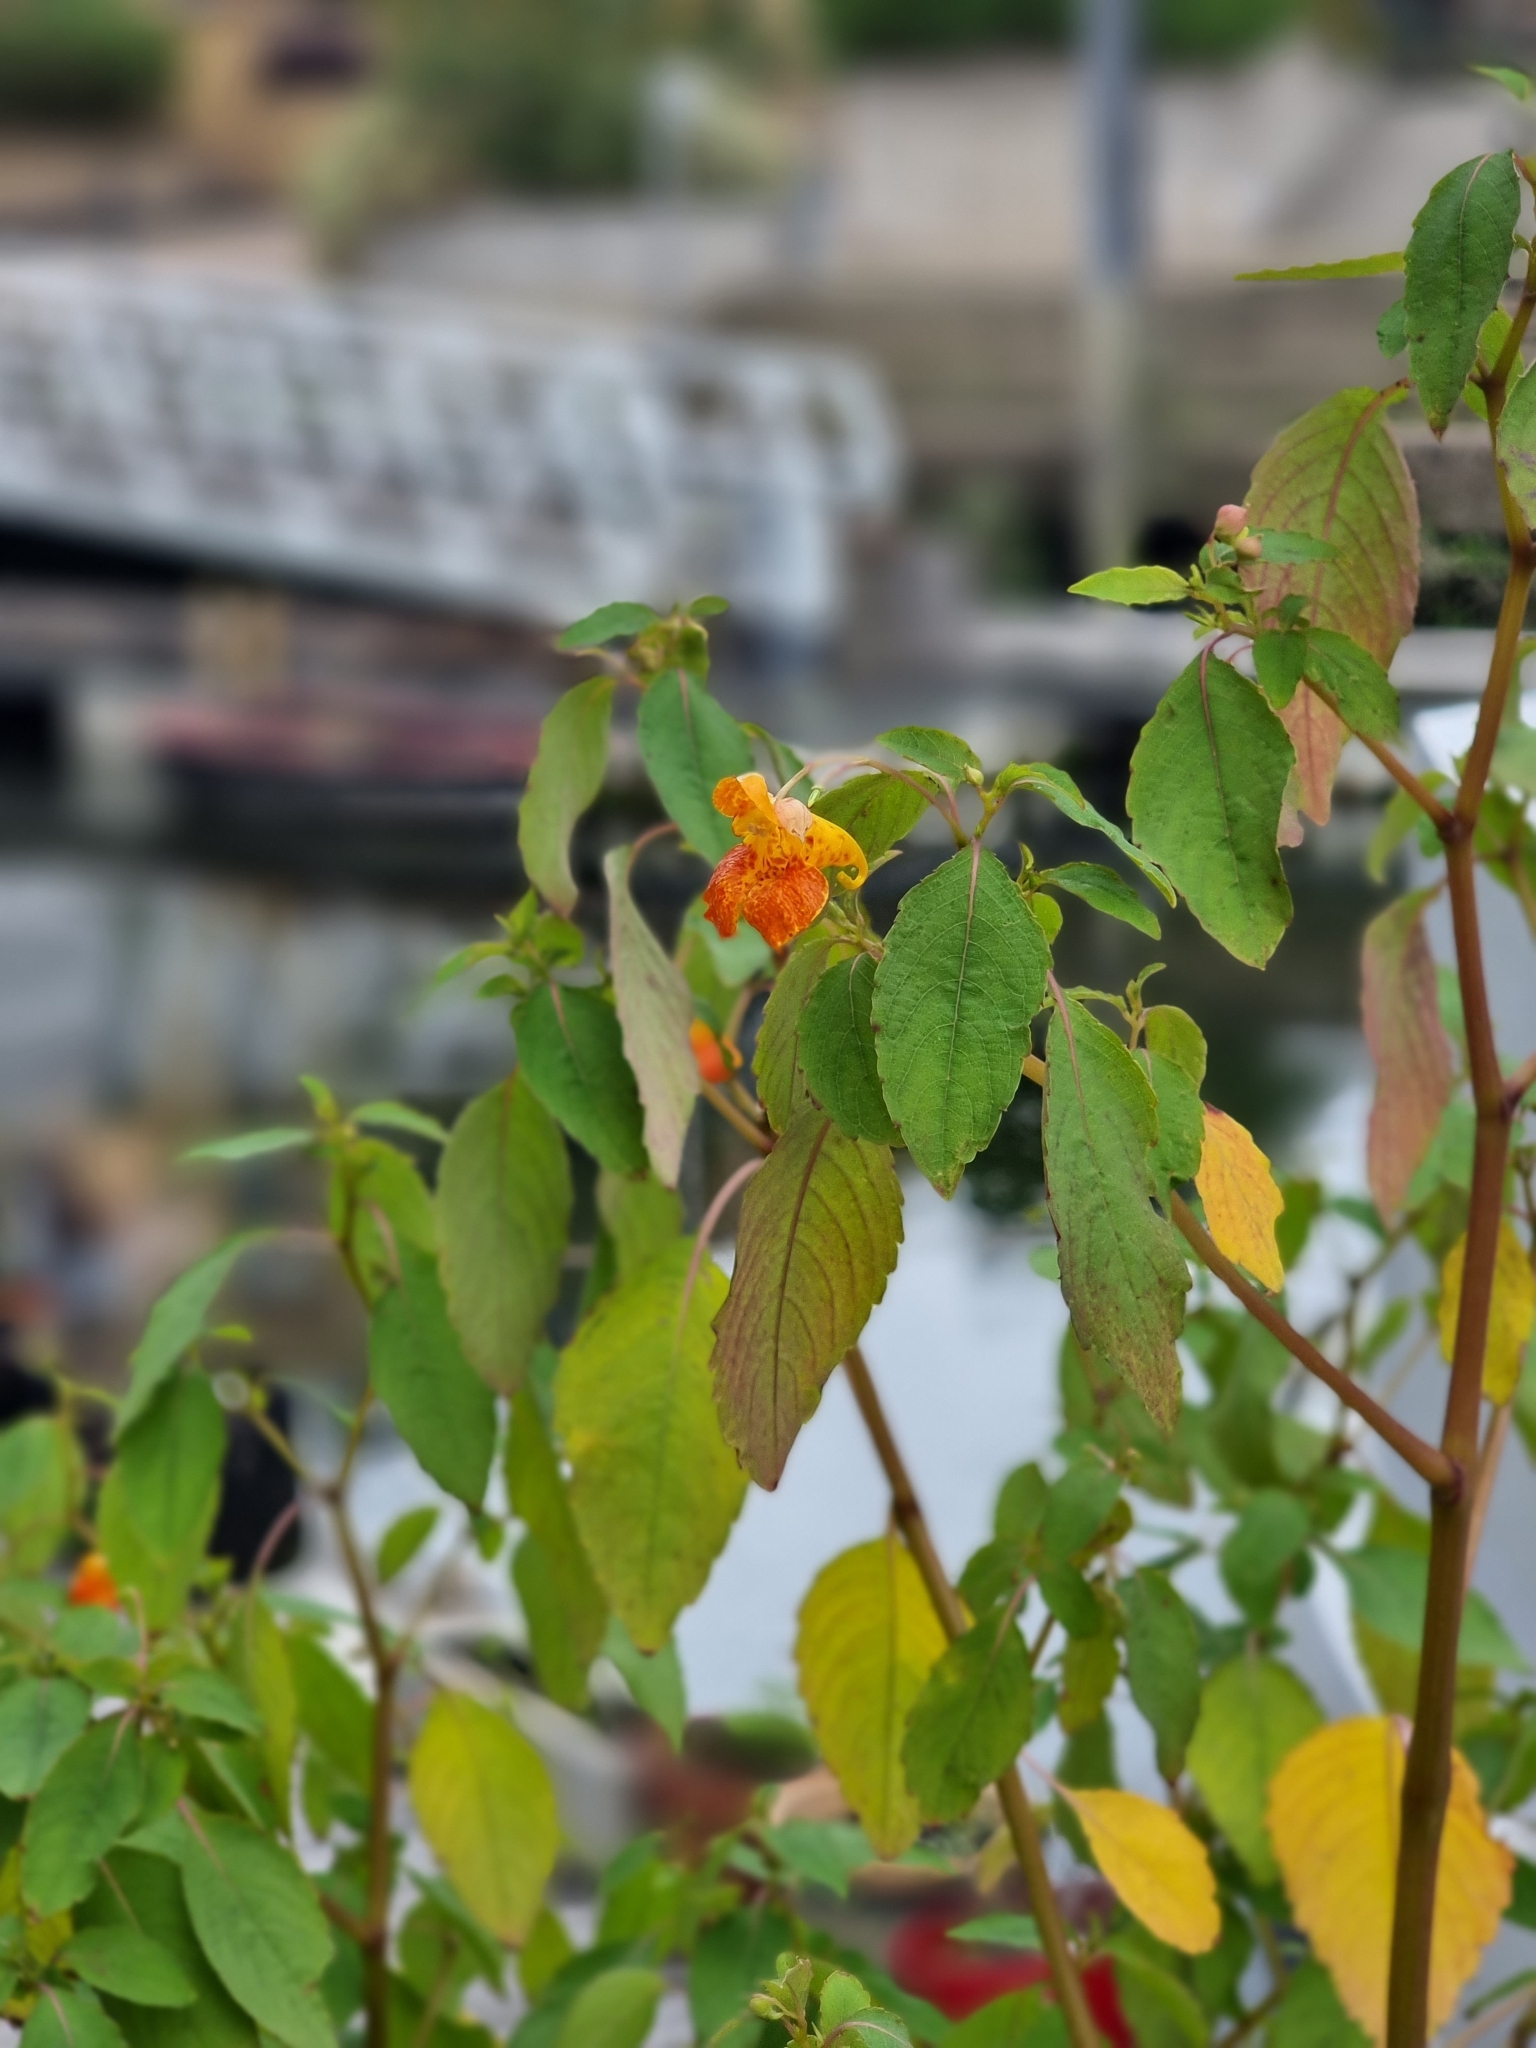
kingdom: Plantae
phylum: Tracheophyta
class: Magnoliopsida
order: Ericales
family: Balsaminaceae
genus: Impatiens
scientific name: Impatiens capensis
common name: Orange balsam
